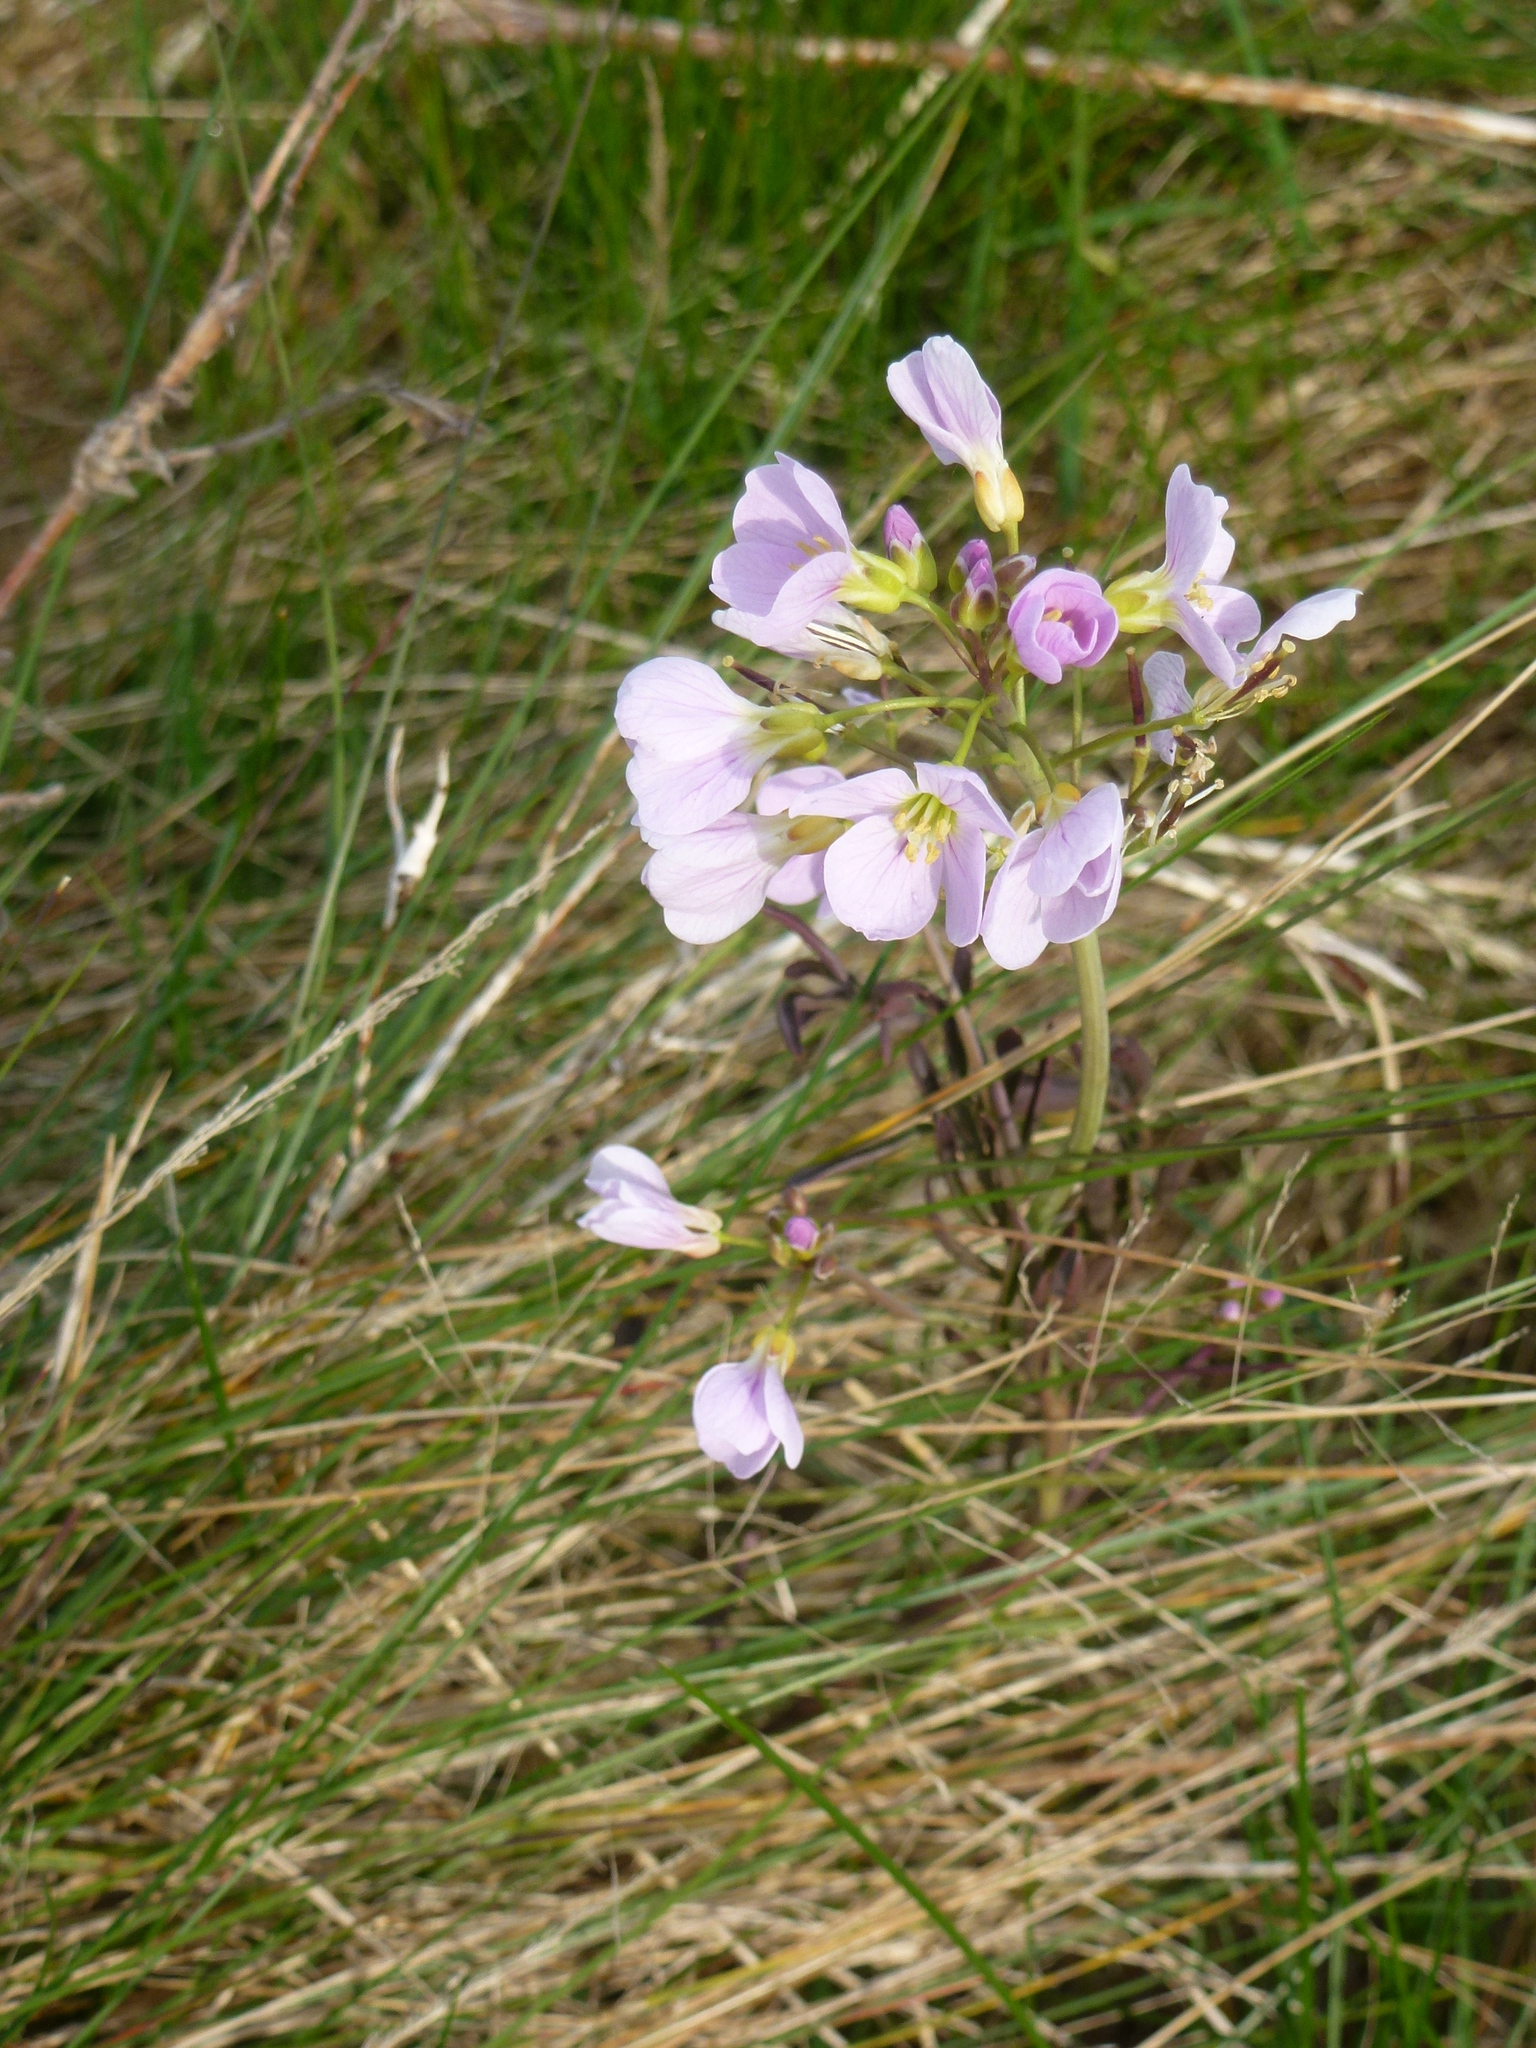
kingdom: Plantae
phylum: Tracheophyta
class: Magnoliopsida
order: Brassicales
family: Brassicaceae
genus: Cardamine
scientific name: Cardamine pratensis
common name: Cuckoo flower
